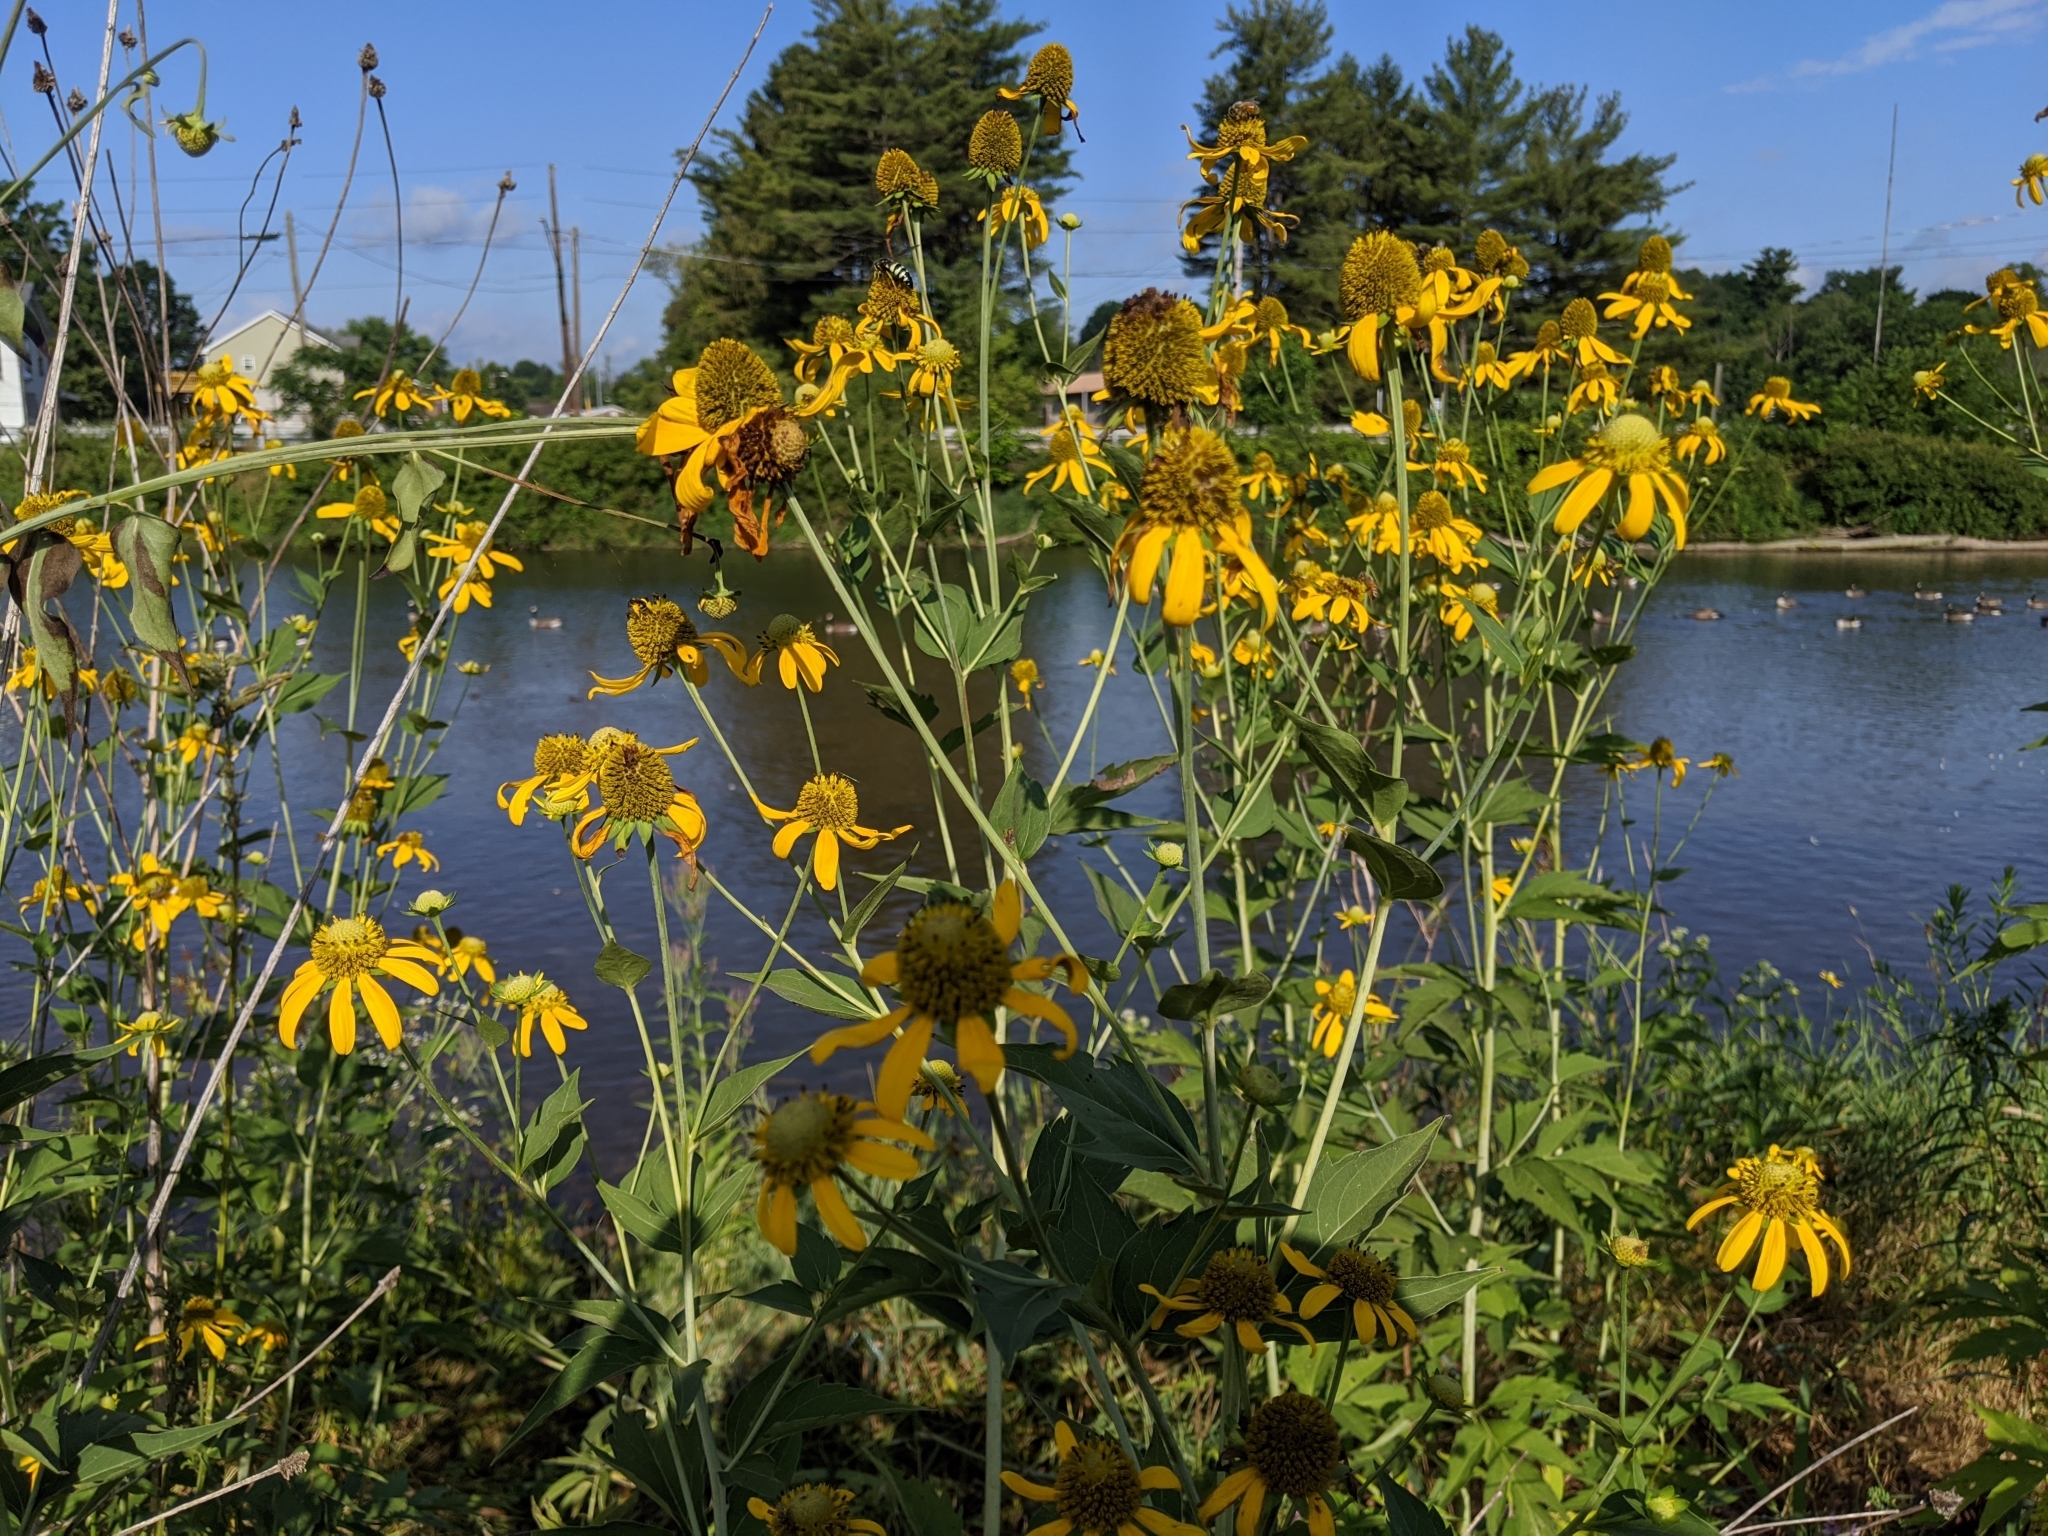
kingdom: Plantae
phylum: Tracheophyta
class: Magnoliopsida
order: Asterales
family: Asteraceae
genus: Rudbeckia
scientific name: Rudbeckia laciniata
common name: Coneflower
